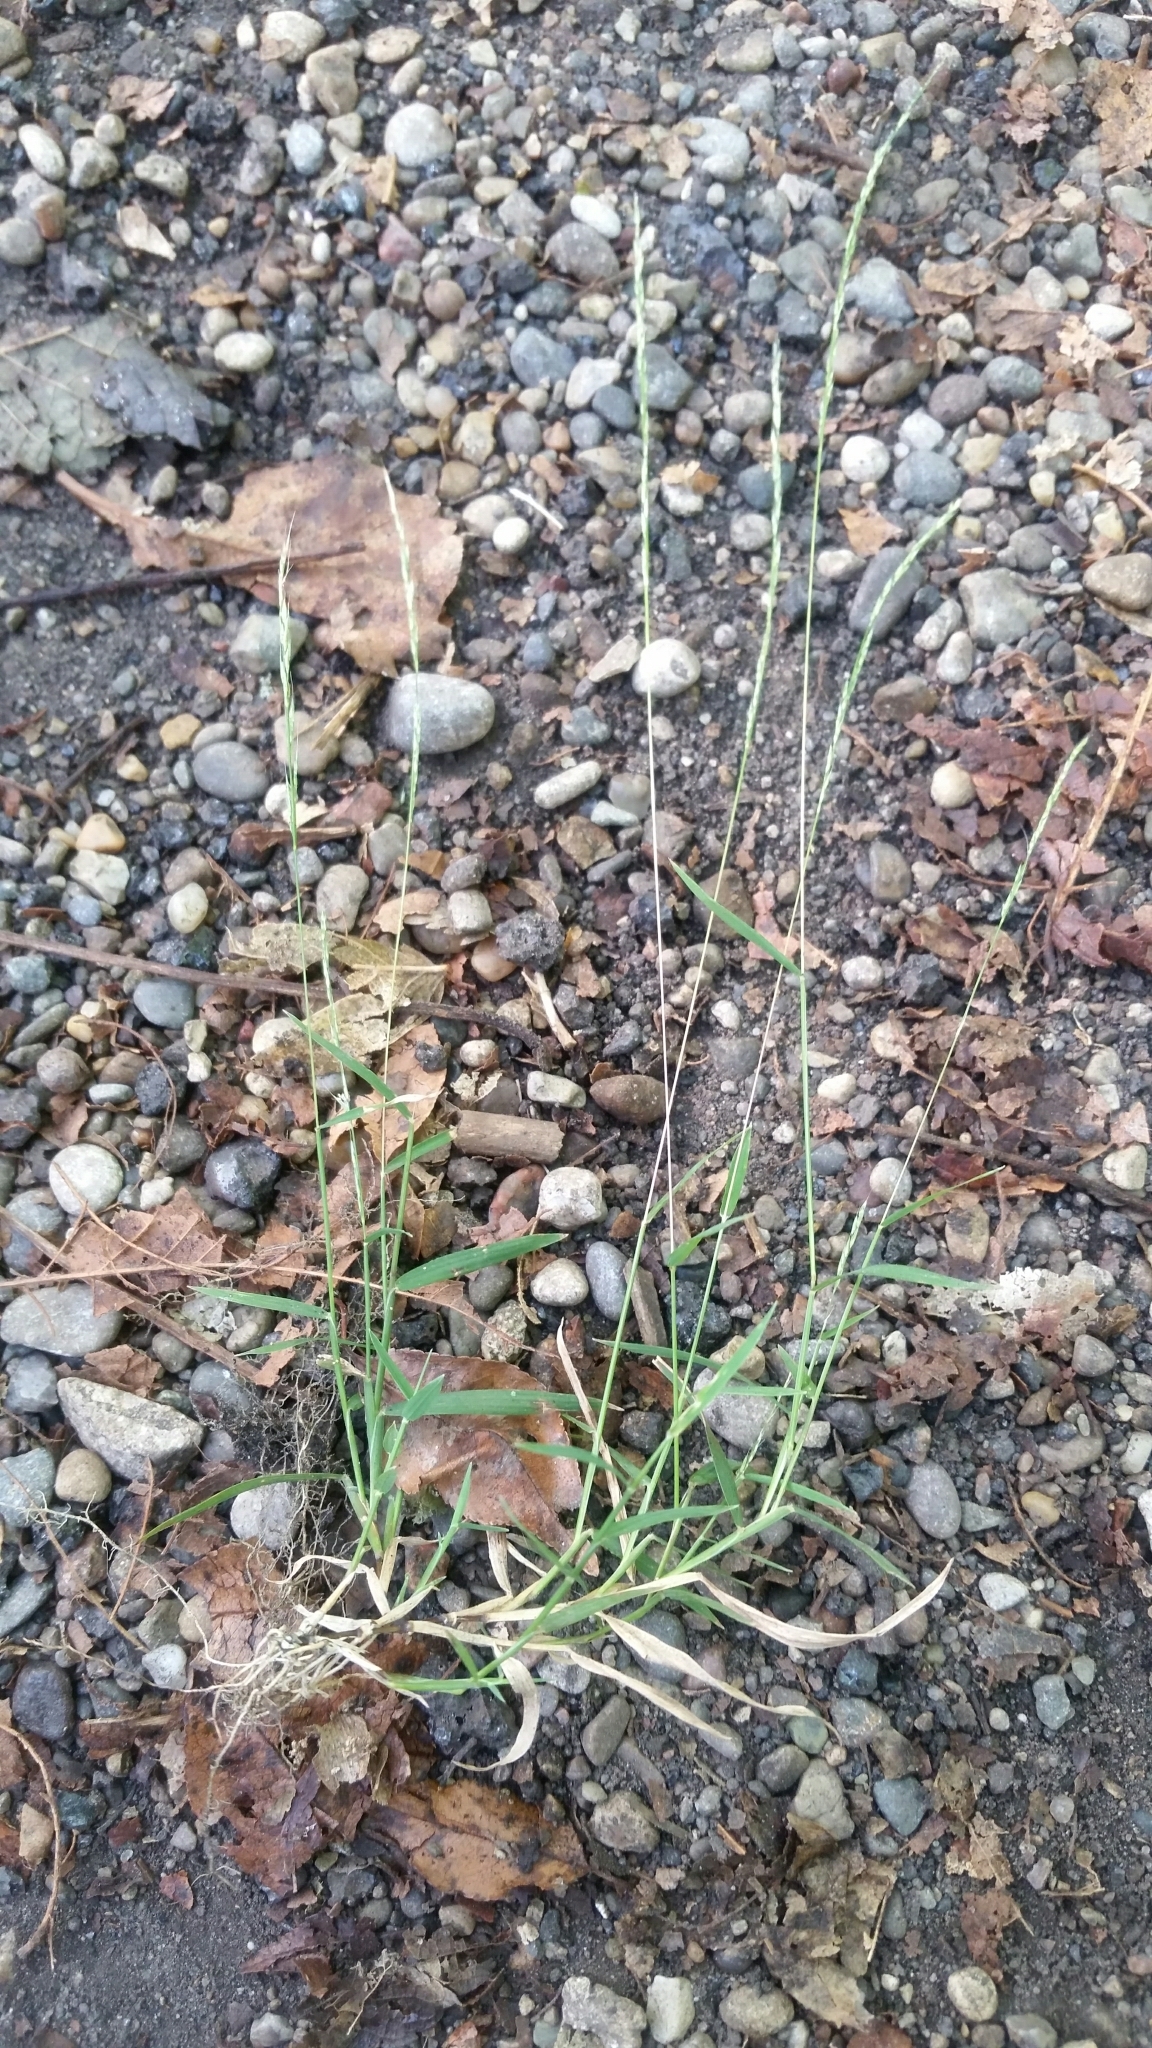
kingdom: Plantae
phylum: Tracheophyta
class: Liliopsida
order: Poales
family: Poaceae
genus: Muhlenbergia
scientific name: Muhlenbergia schreberi
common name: Nimblewill
